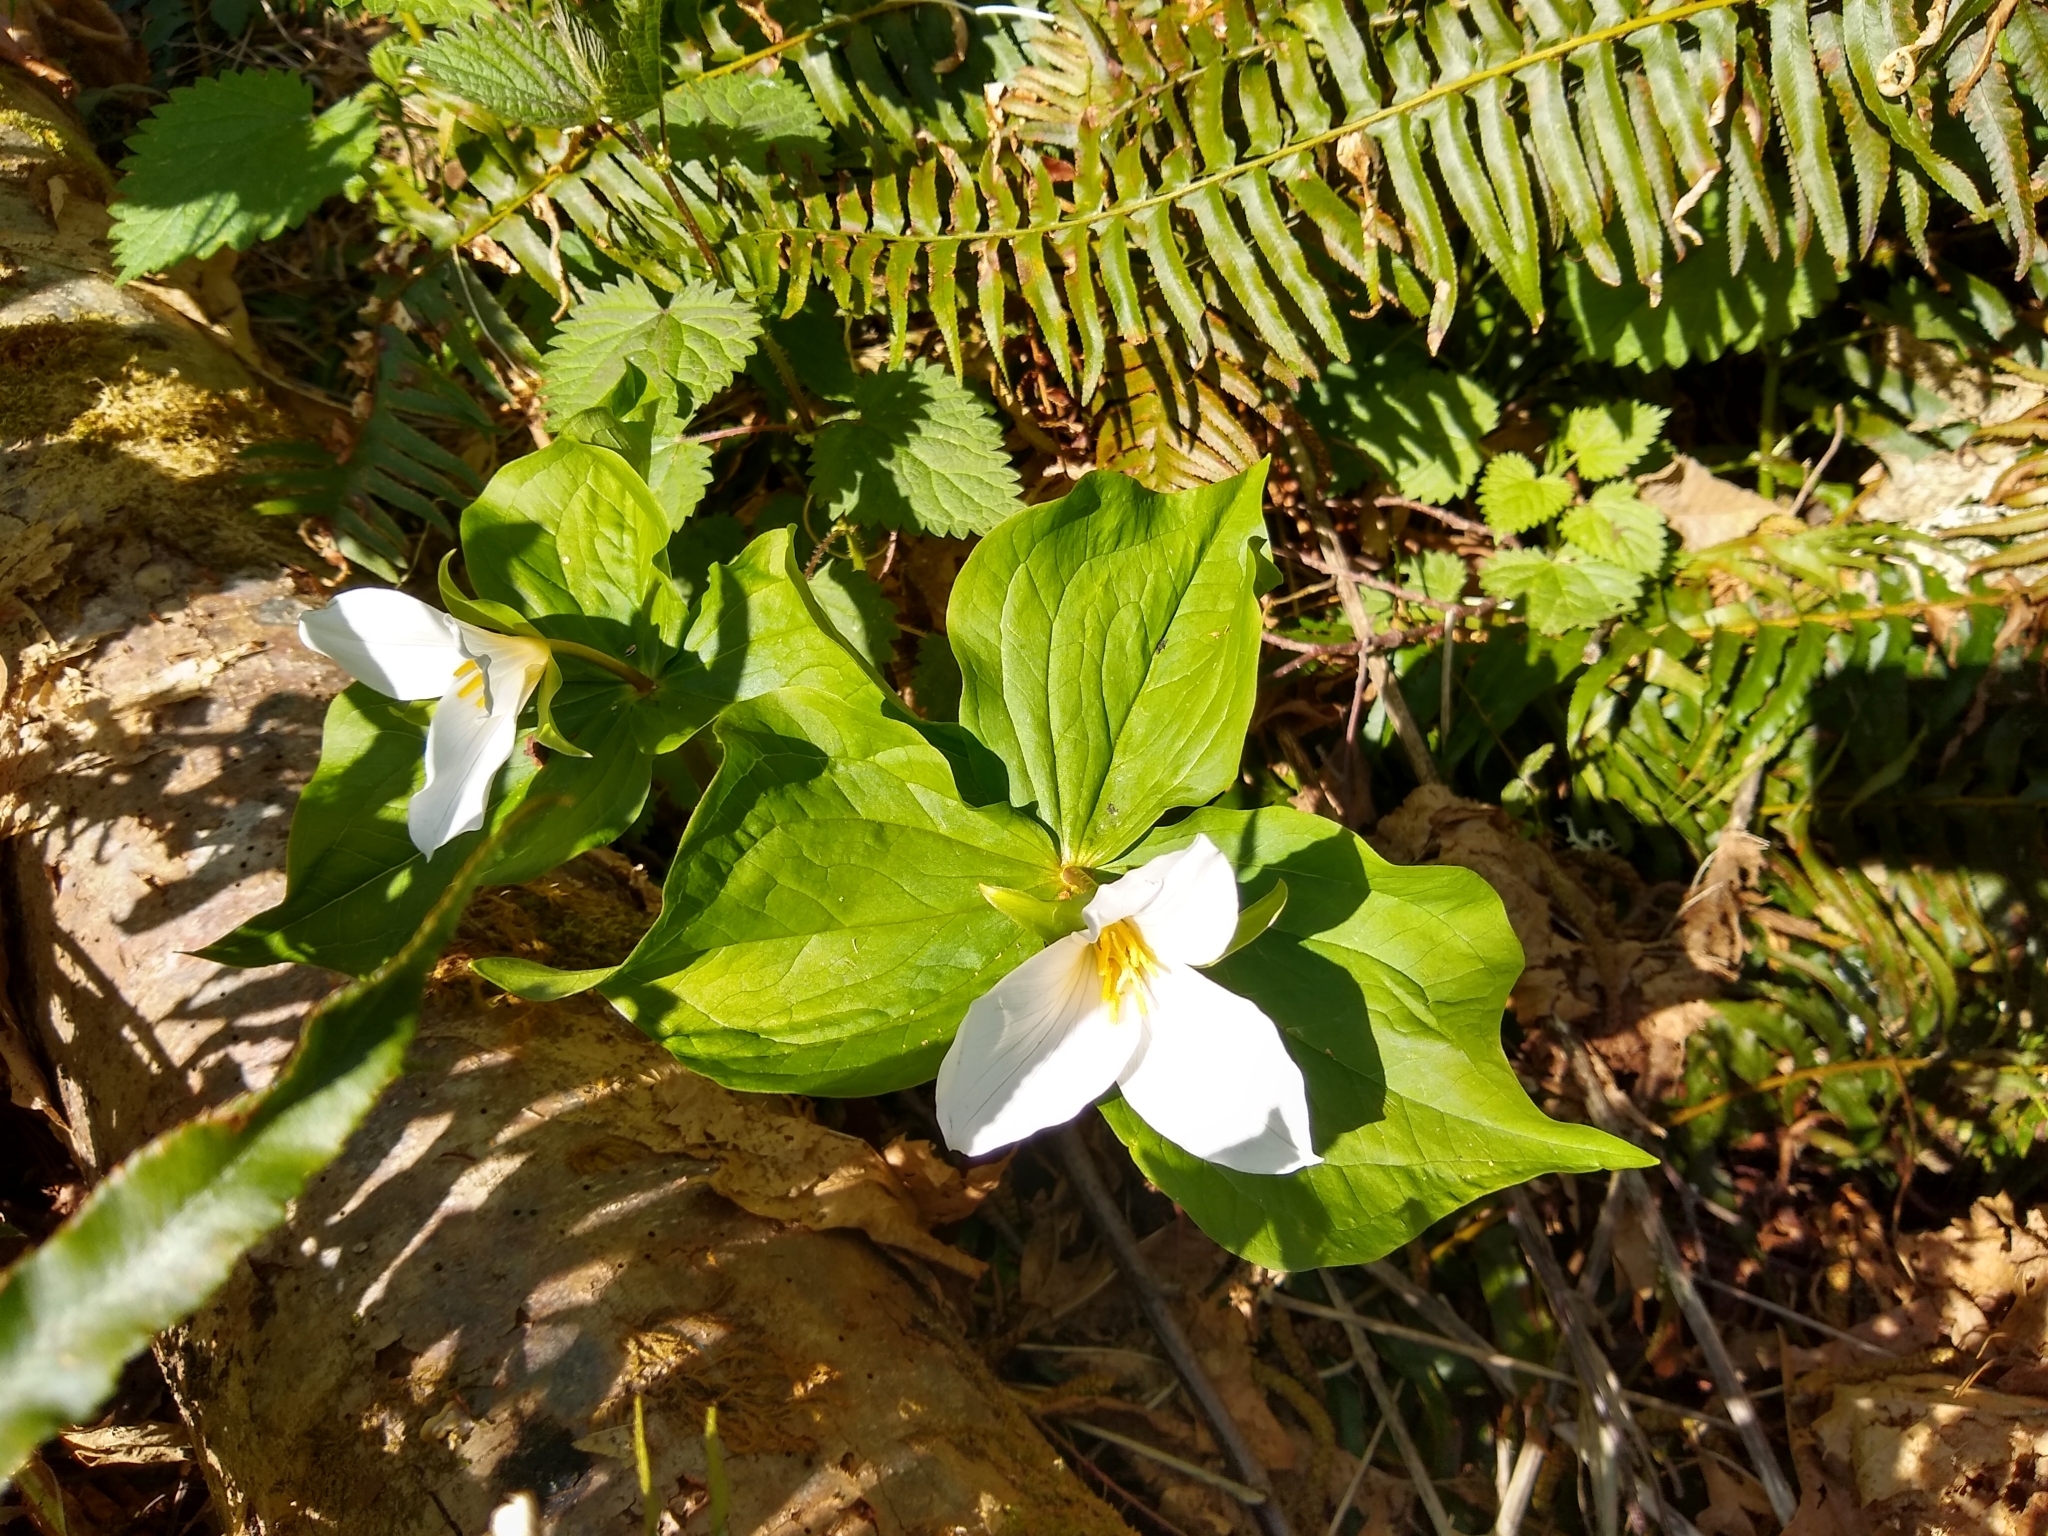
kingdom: Plantae
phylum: Tracheophyta
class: Liliopsida
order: Liliales
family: Melanthiaceae
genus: Trillium
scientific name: Trillium ovatum
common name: Pacific trillium
